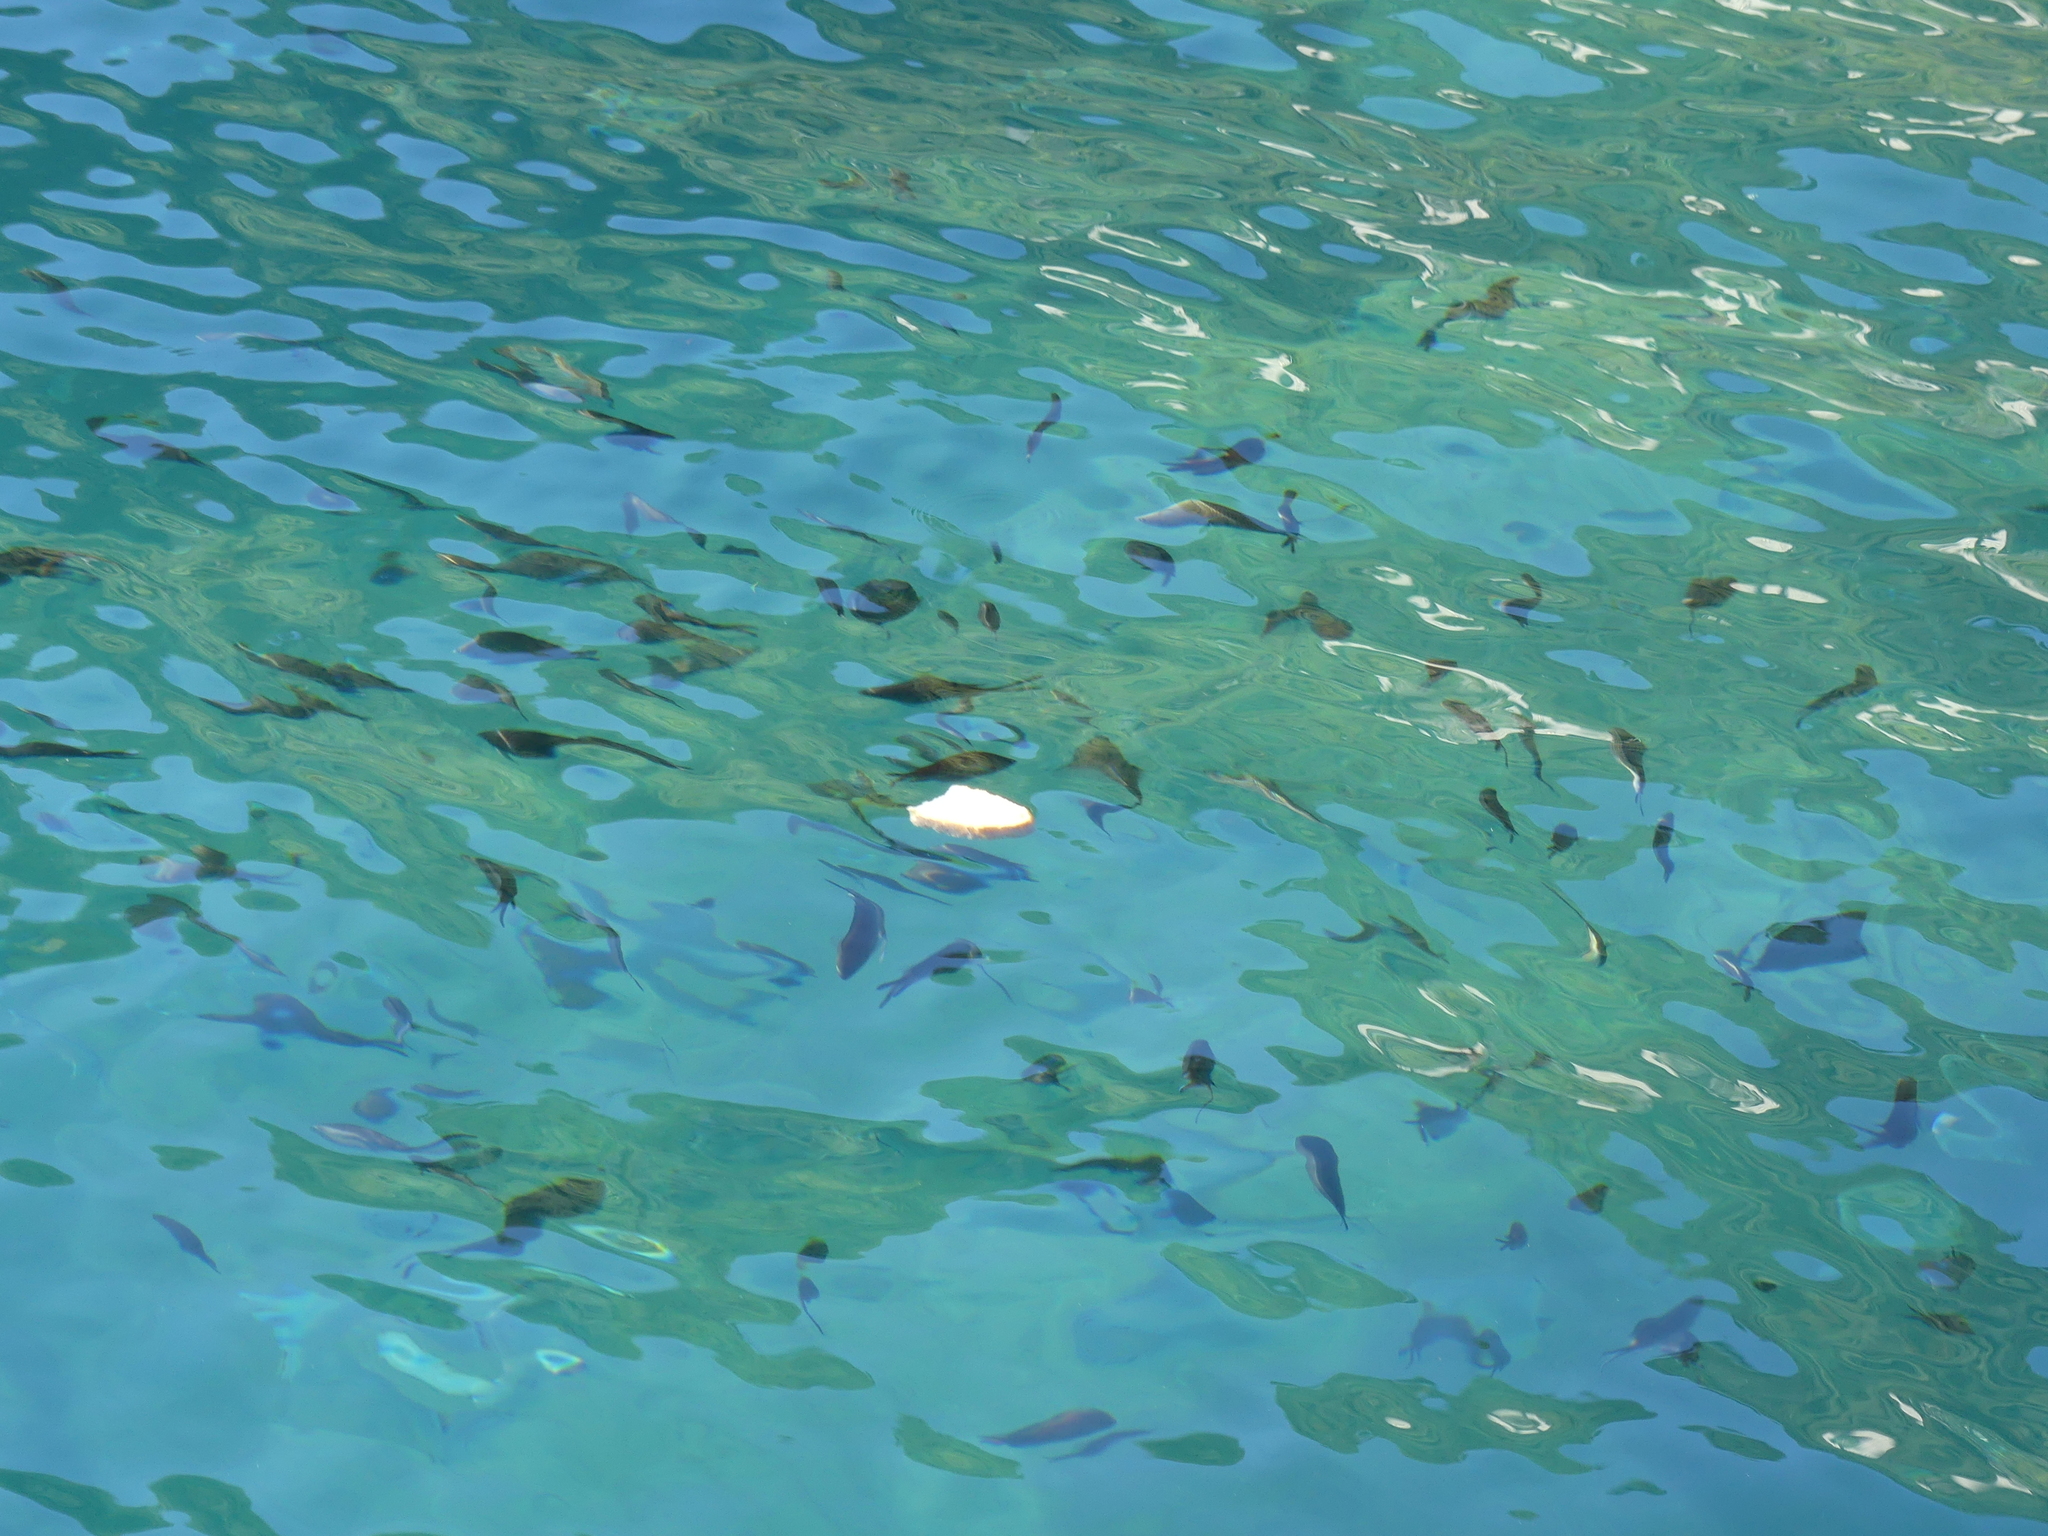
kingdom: Animalia
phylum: Chordata
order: Perciformes
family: Pomacentridae
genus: Chromis
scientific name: Chromis chromis
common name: Damselfish
